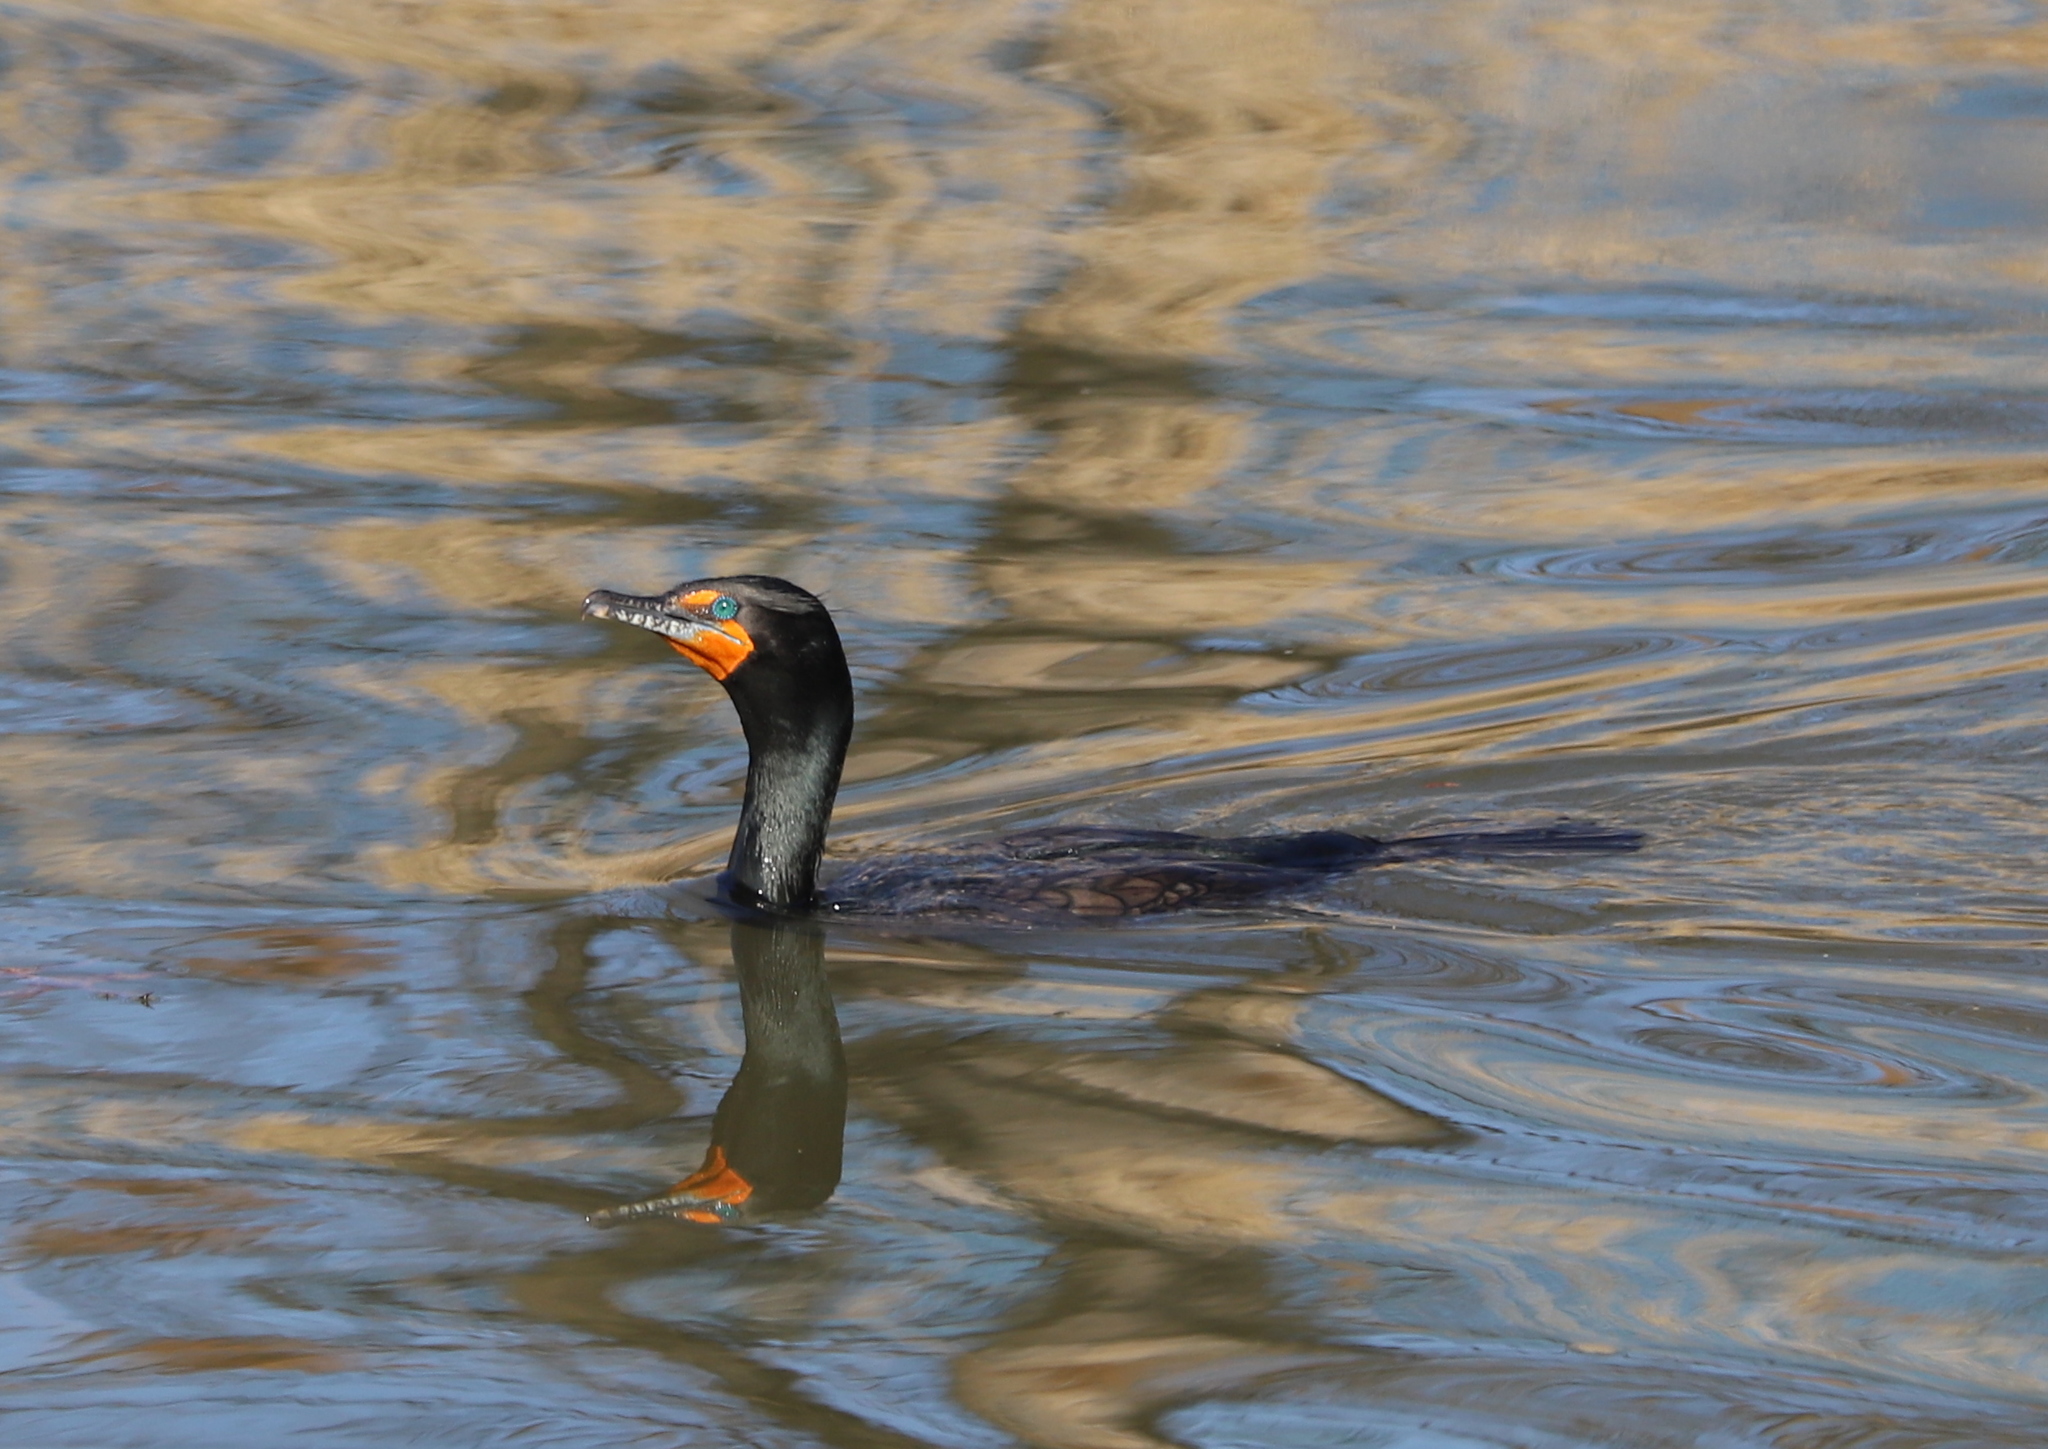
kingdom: Animalia
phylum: Chordata
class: Aves
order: Suliformes
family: Phalacrocoracidae
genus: Phalacrocorax
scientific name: Phalacrocorax auritus
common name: Double-crested cormorant
